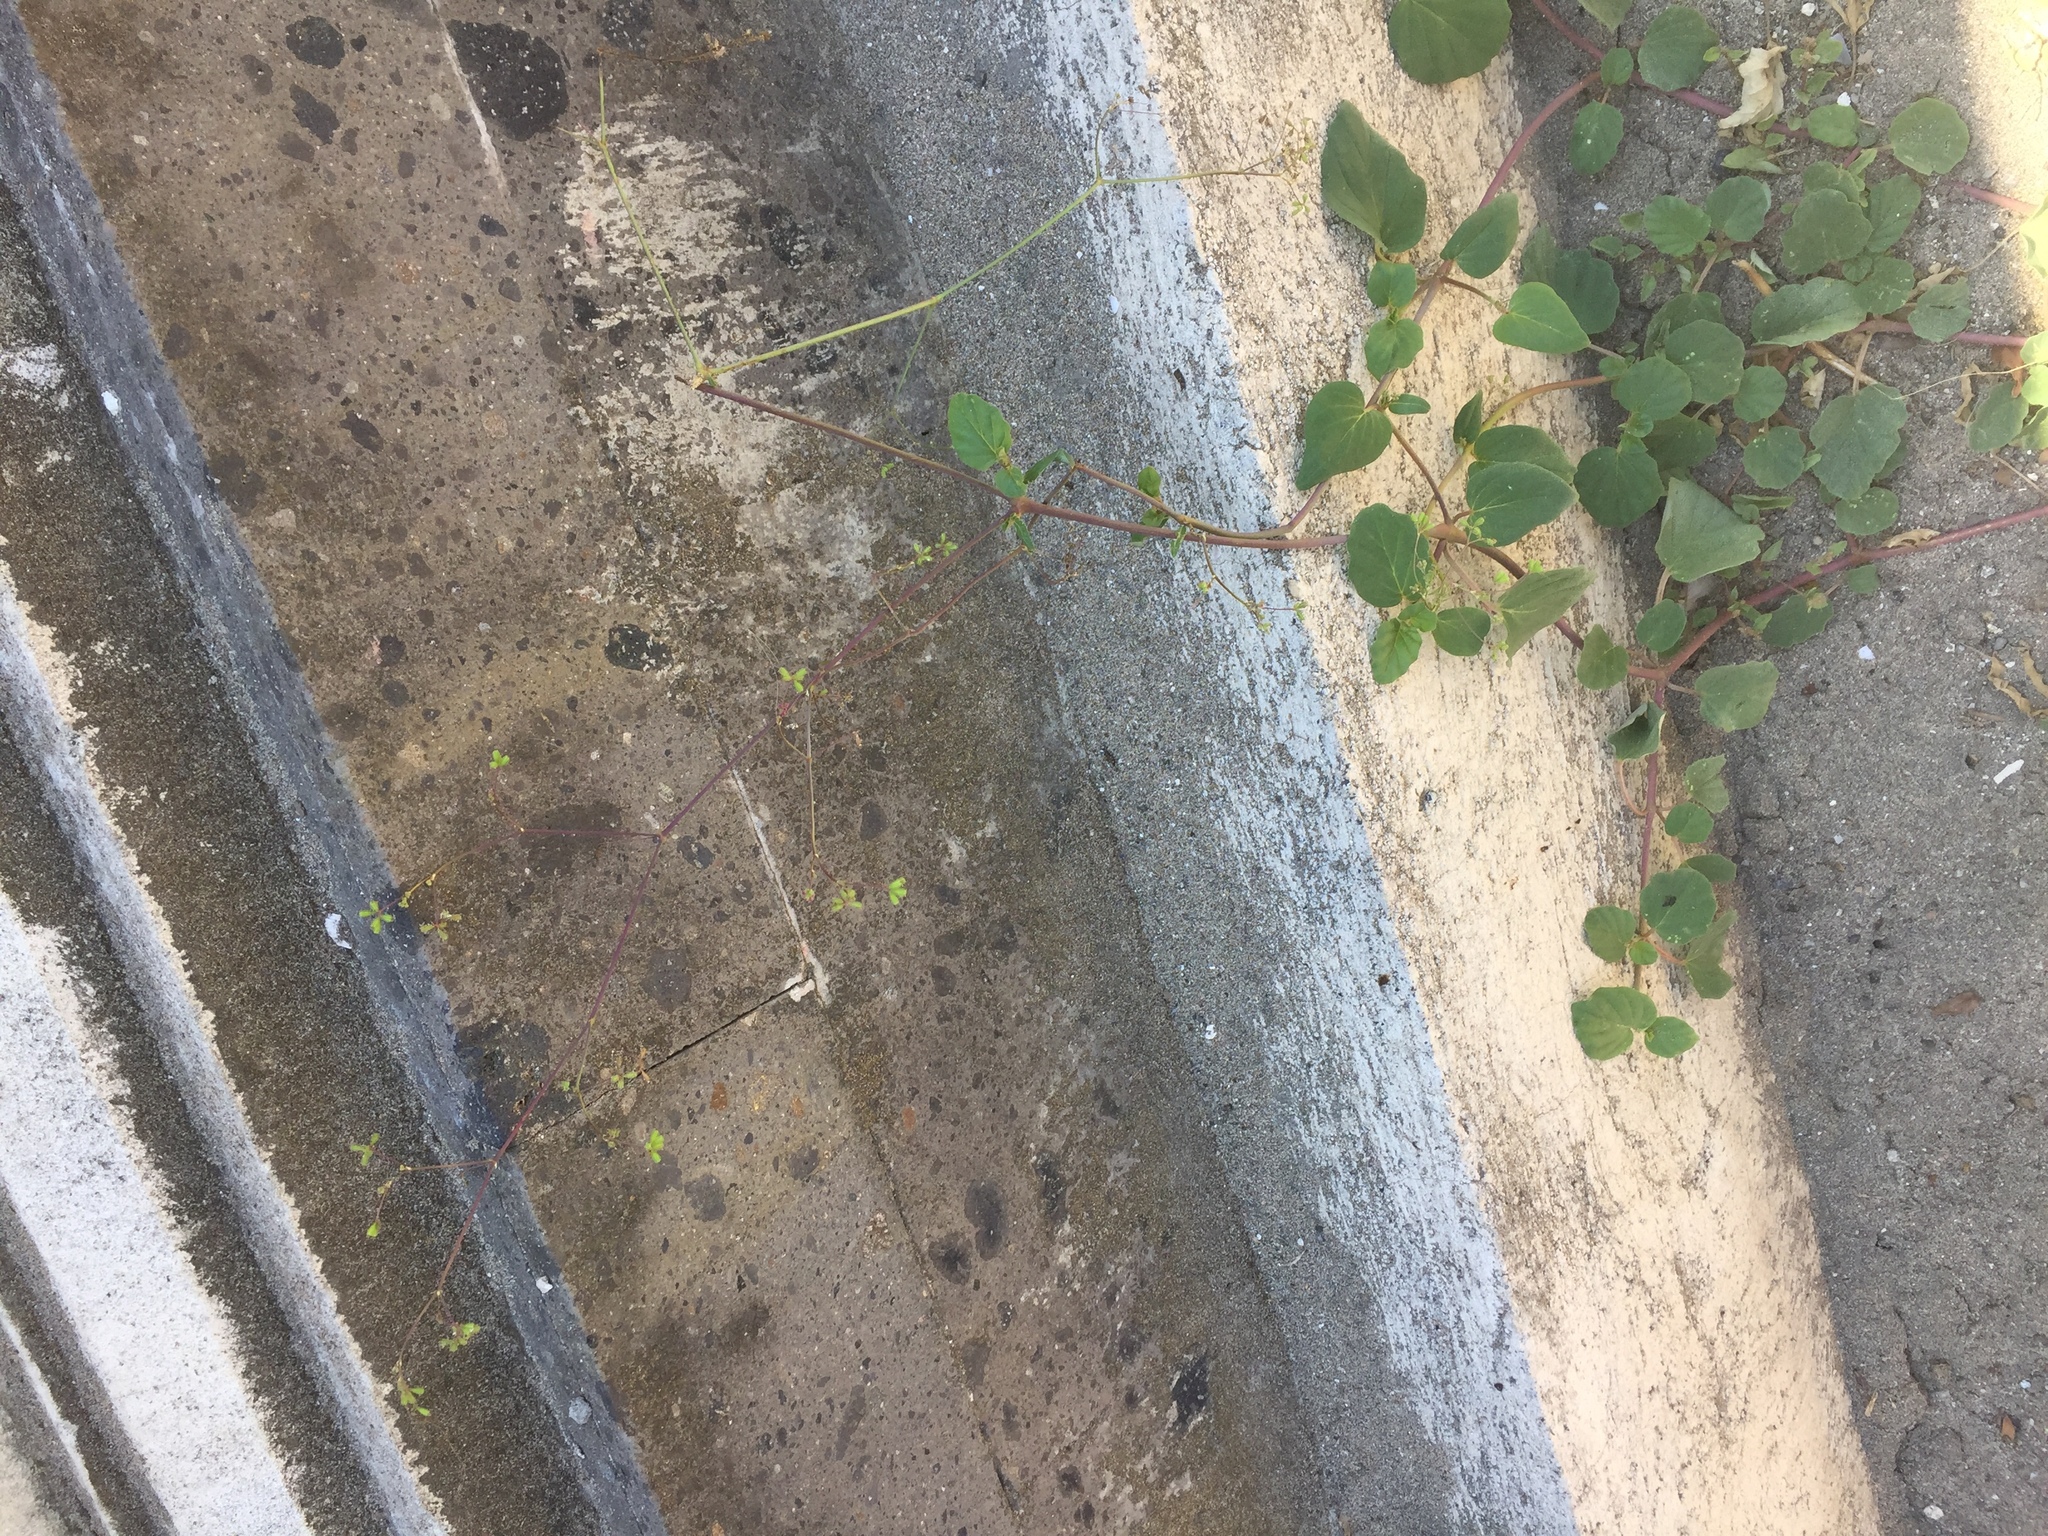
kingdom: Plantae
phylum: Tracheophyta
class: Magnoliopsida
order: Caryophyllales
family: Nyctaginaceae
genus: Boerhavia
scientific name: Boerhavia erecta
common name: Erect spiderling
